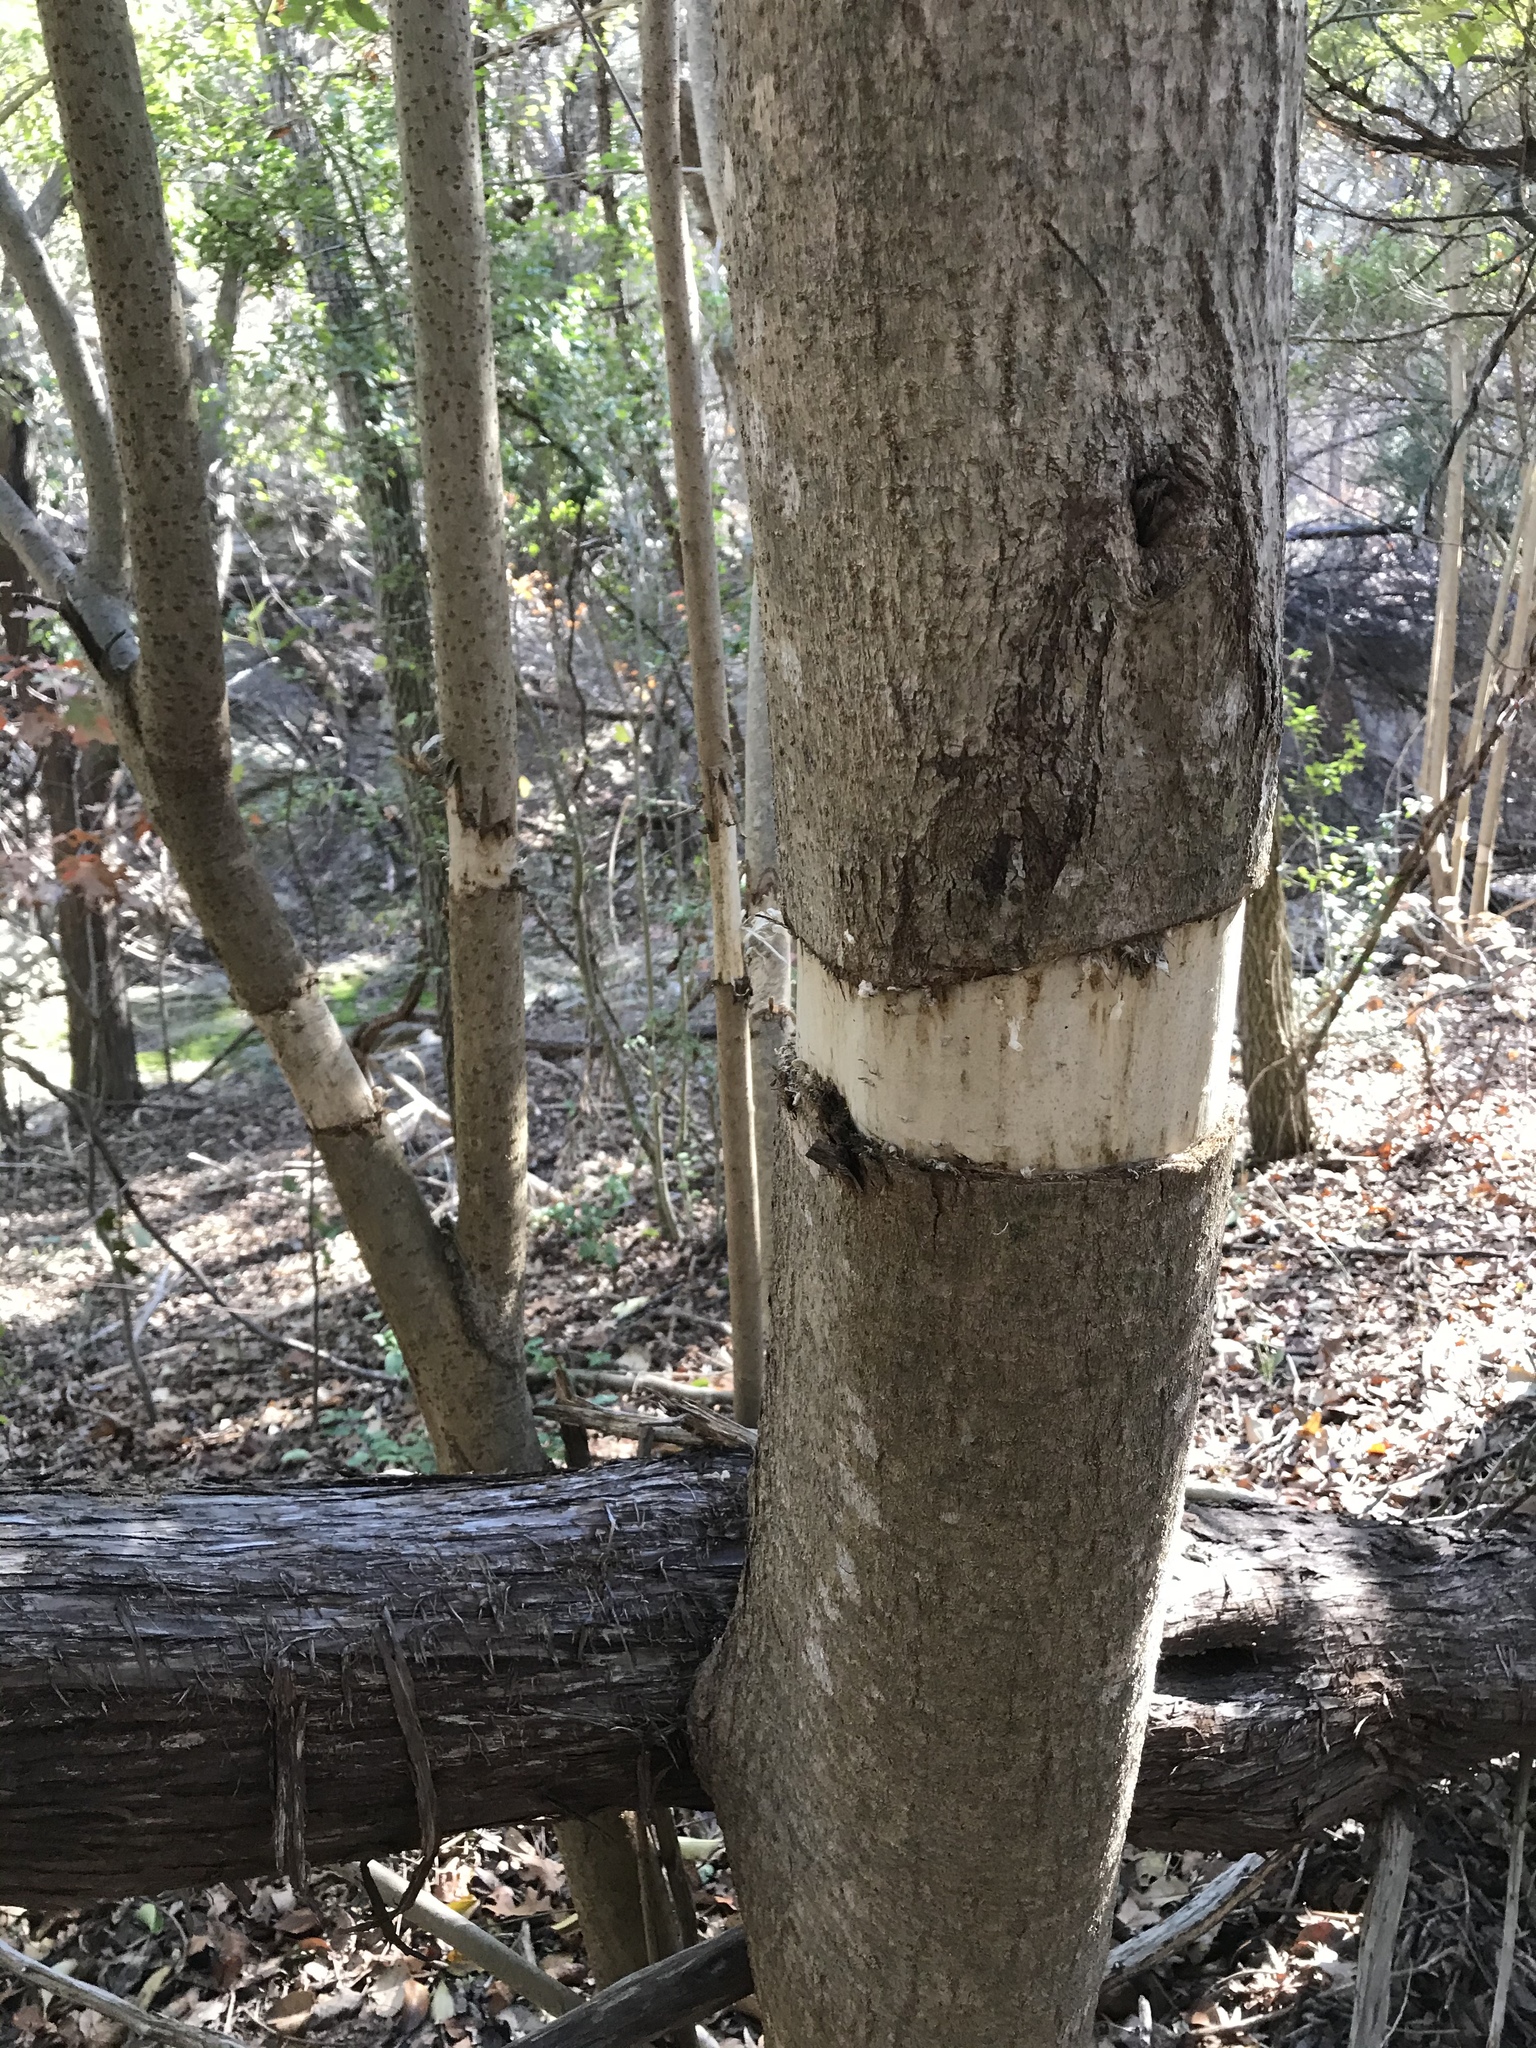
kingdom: Plantae
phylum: Tracheophyta
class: Magnoliopsida
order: Lamiales
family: Oleaceae
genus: Ligustrum
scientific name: Ligustrum lucidum
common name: Glossy privet
